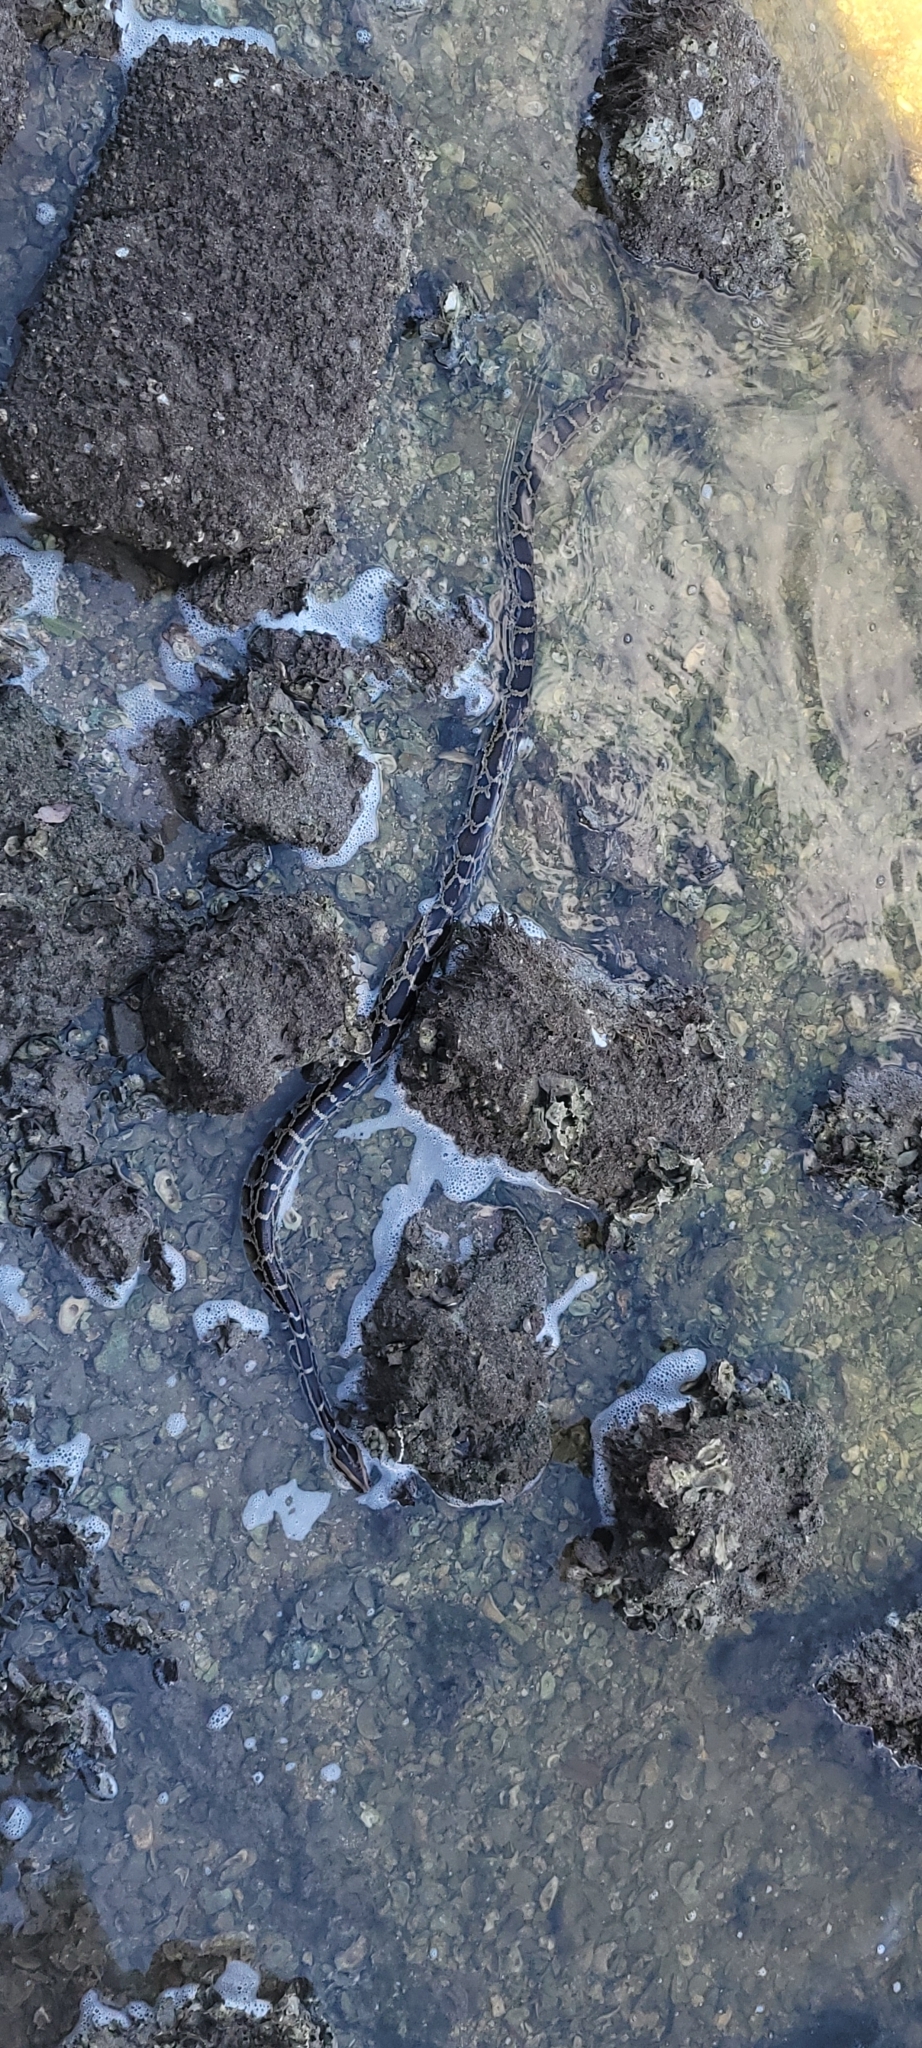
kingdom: Animalia
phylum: Chordata
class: Squamata
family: Pythonidae
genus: Python
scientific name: Python bivittatus
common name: Burmese python
